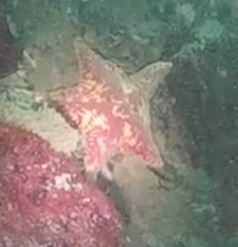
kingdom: Animalia
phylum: Echinodermata
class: Asteroidea
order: Valvatida
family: Asterinidae
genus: Patiria
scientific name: Patiria miniata
